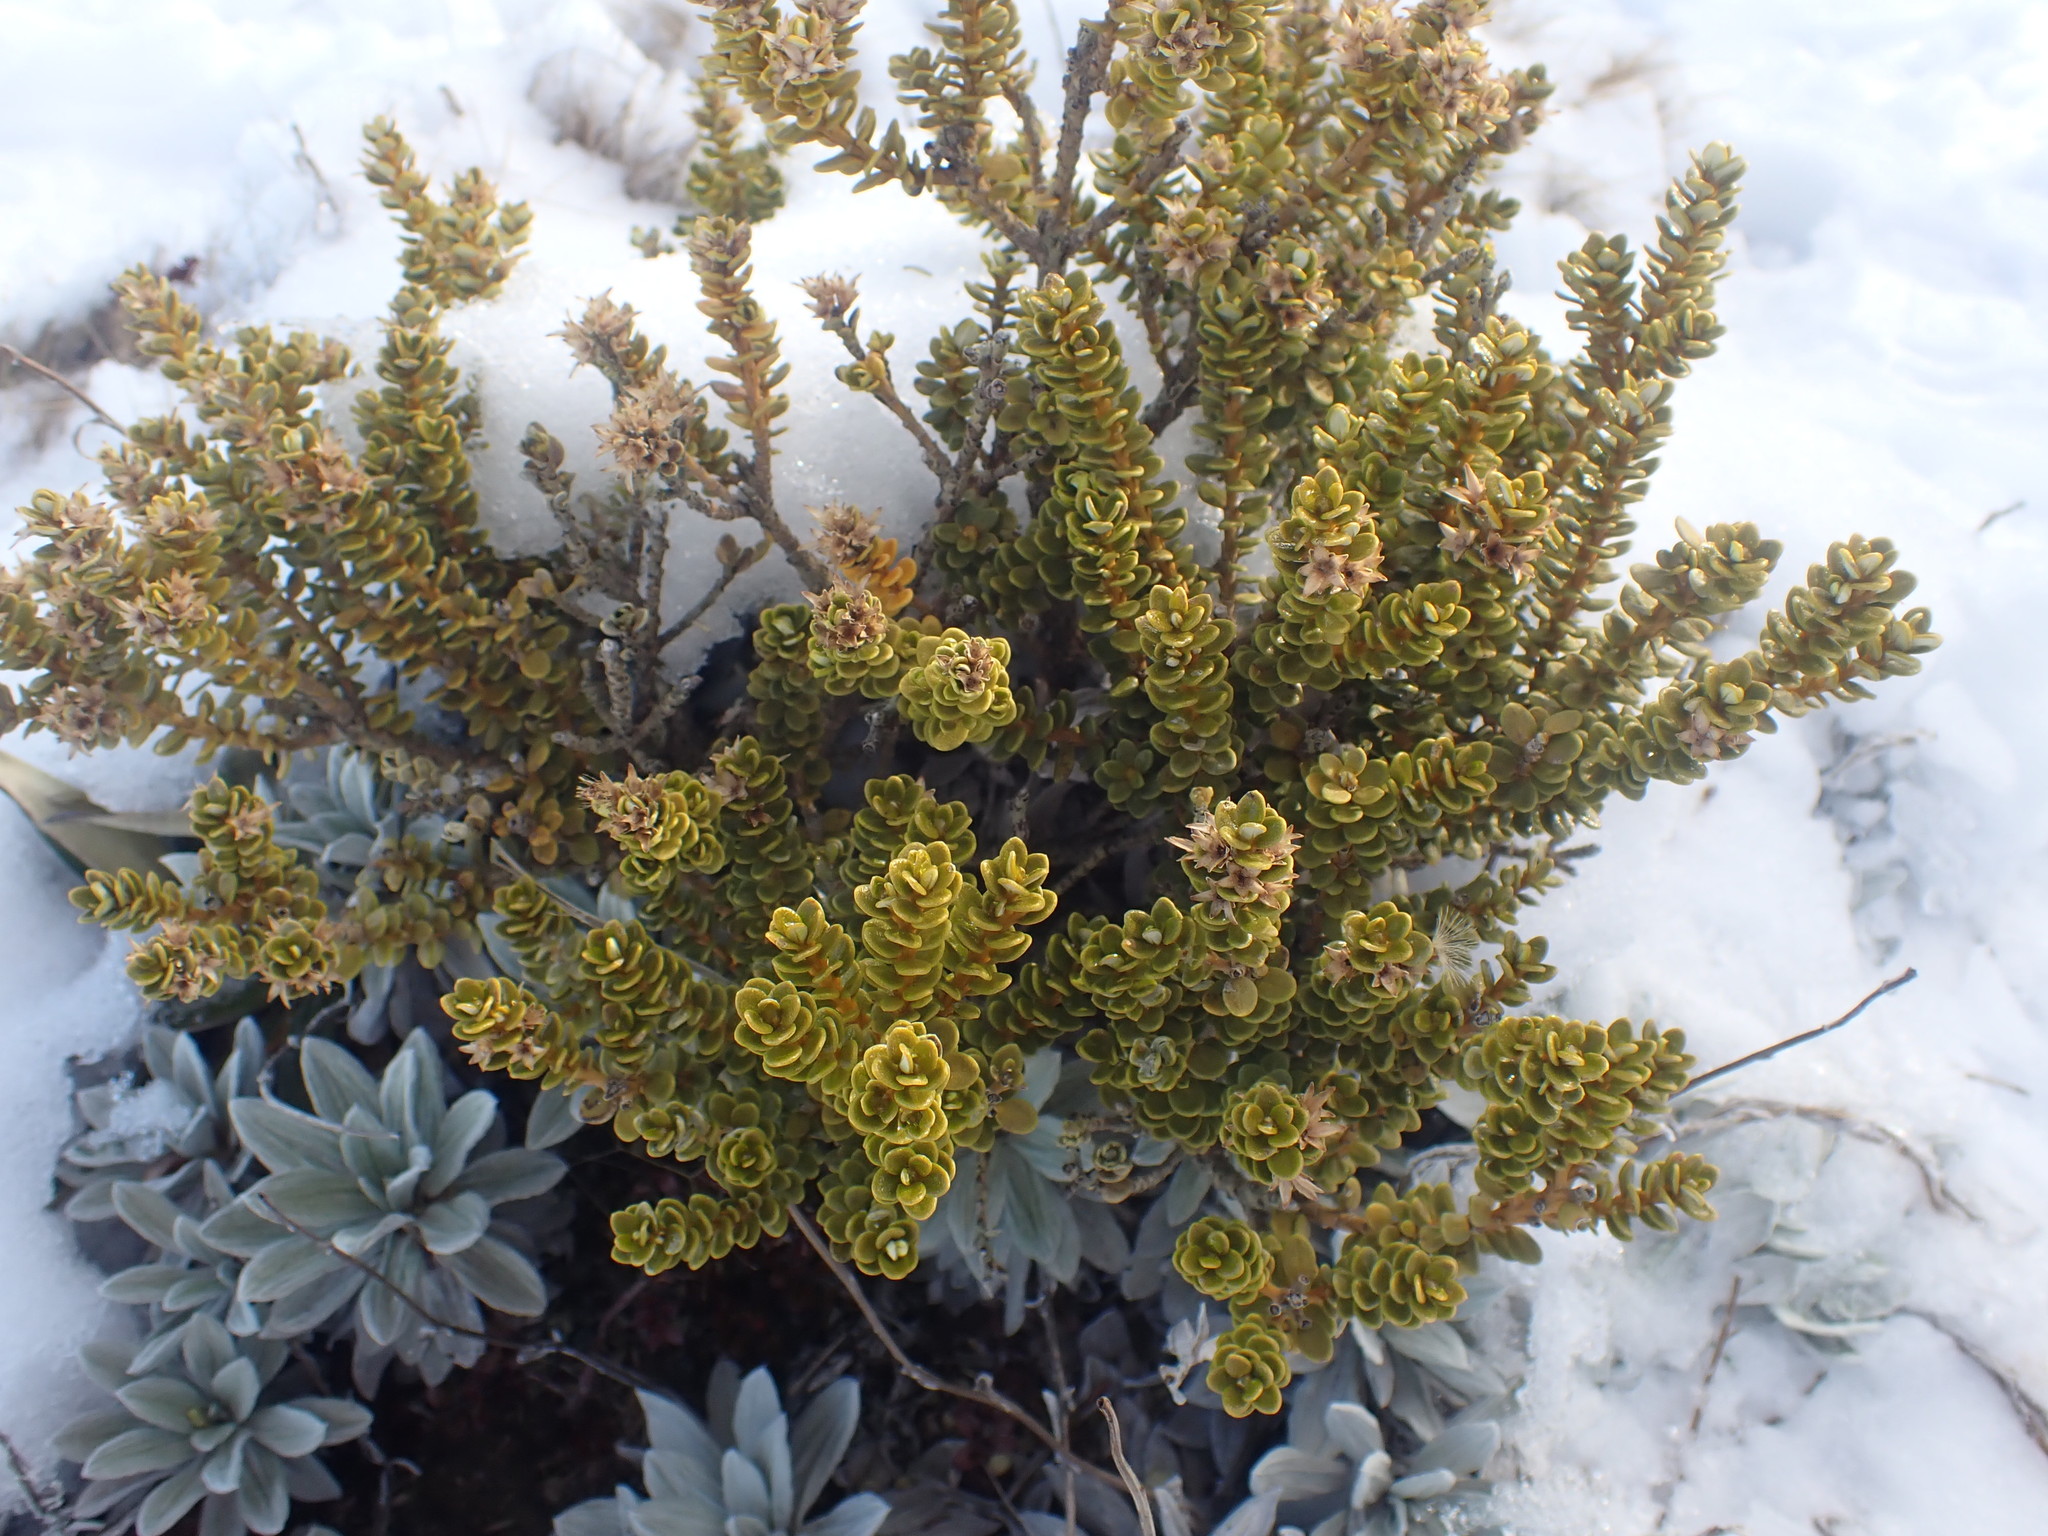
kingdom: Plantae
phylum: Tracheophyta
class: Magnoliopsida
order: Asterales
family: Asteraceae
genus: Olearia
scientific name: Olearia nummularifolia
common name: Sticky daisybush
